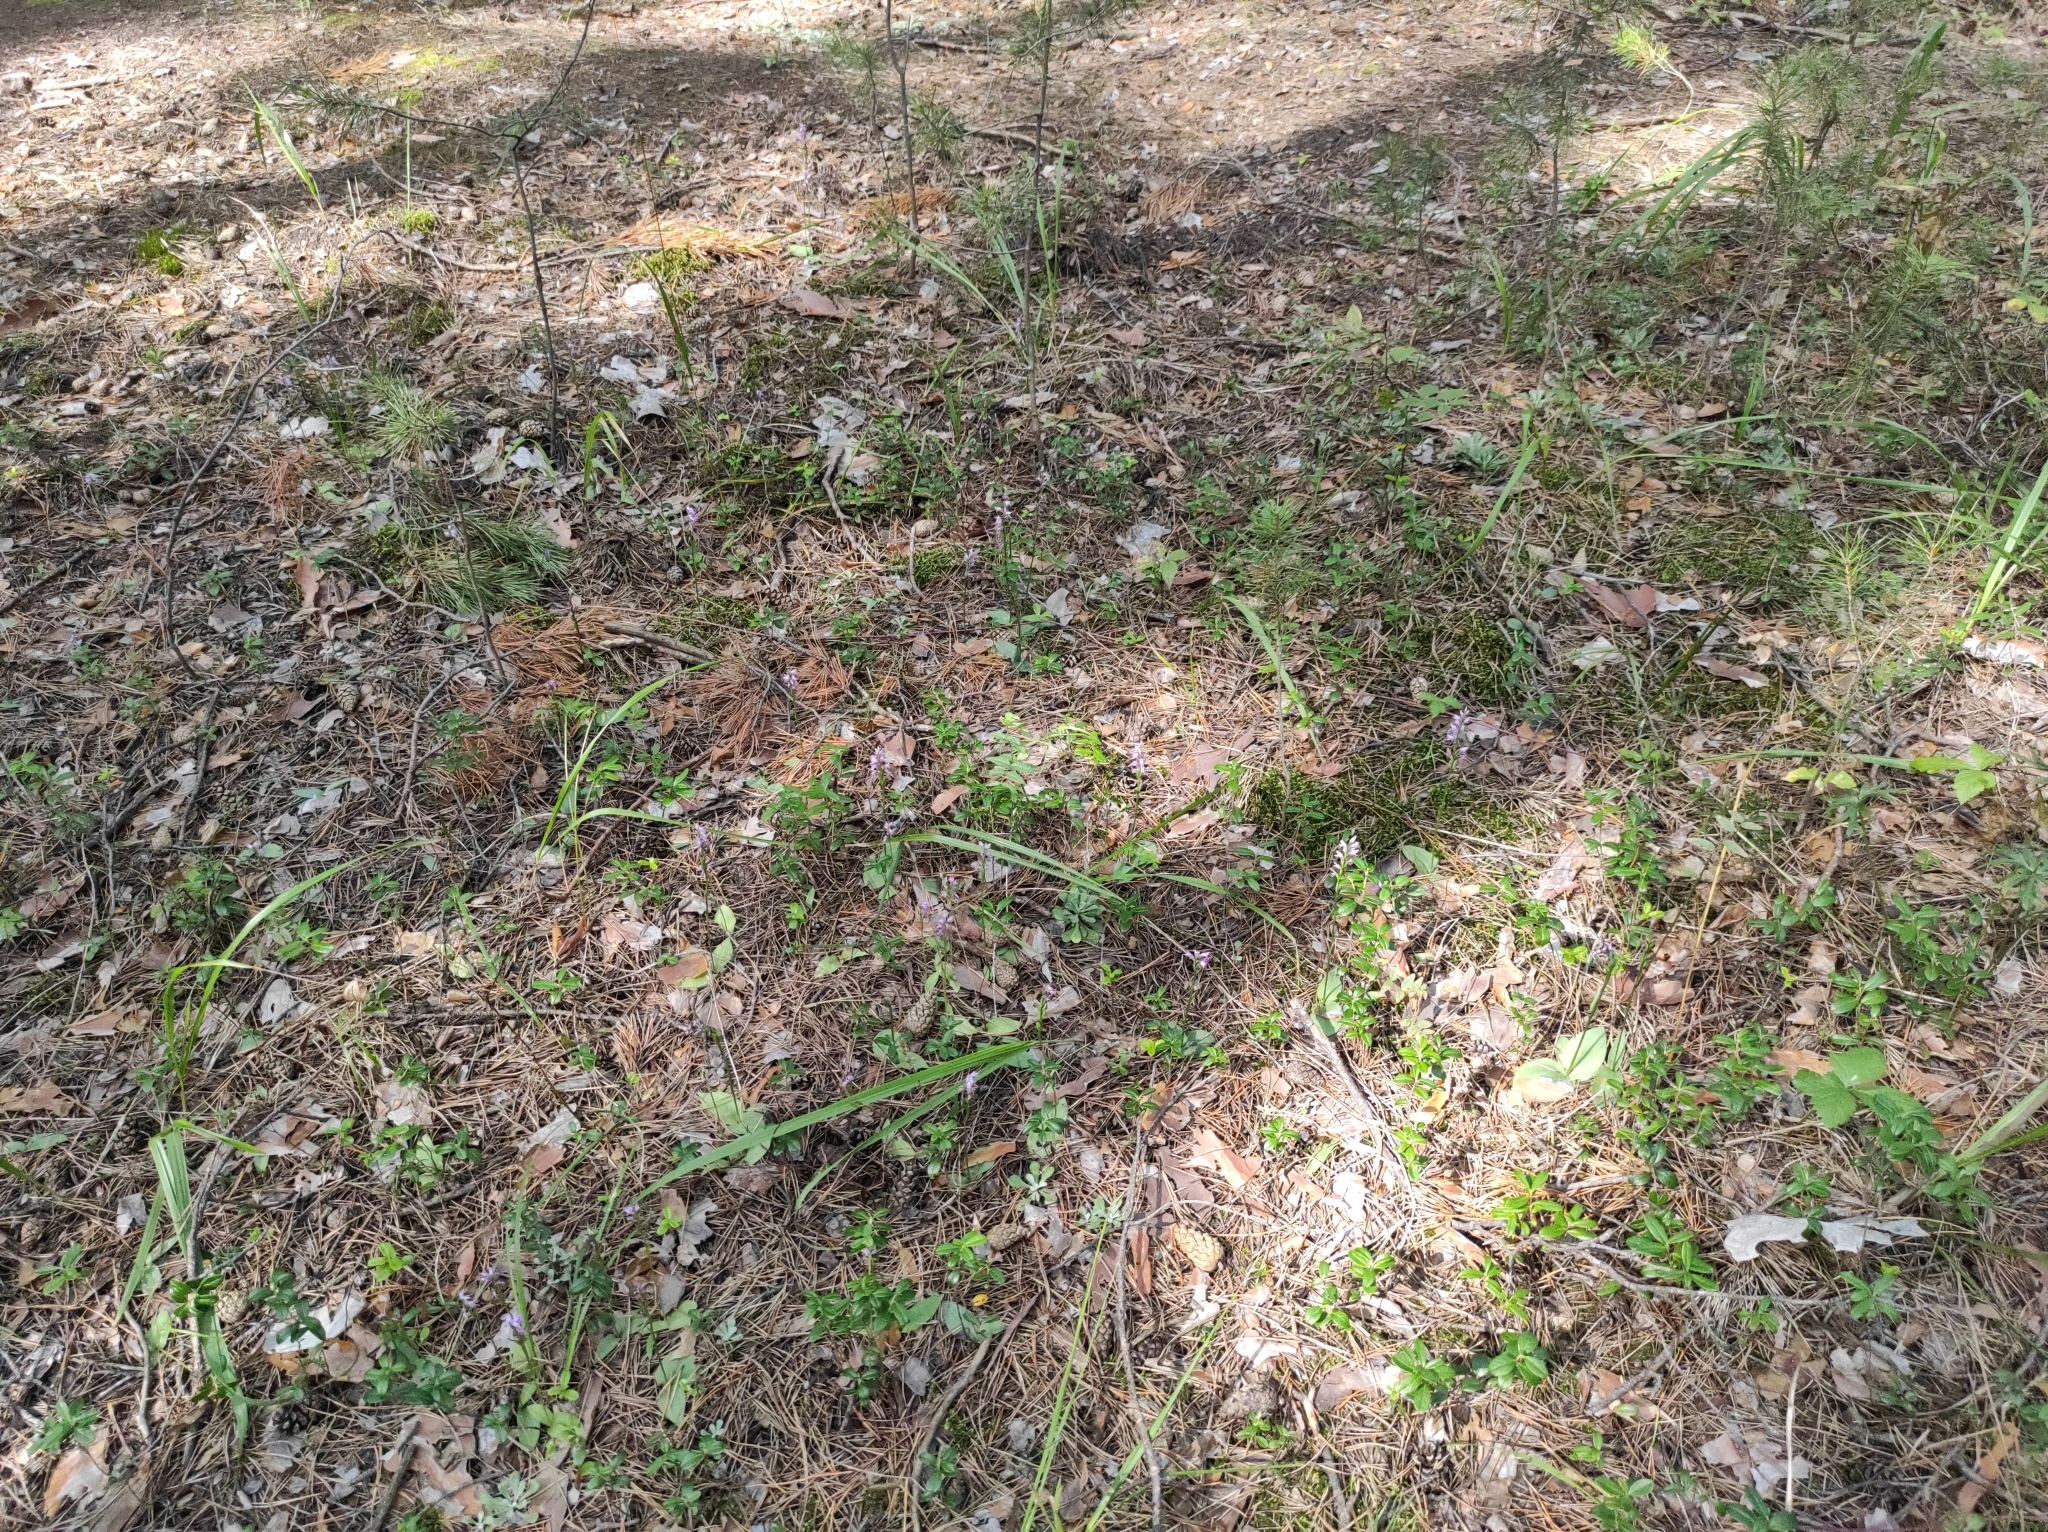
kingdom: Plantae
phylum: Tracheophyta
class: Liliopsida
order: Asparagales
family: Orchidaceae
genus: Hemipilia
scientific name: Hemipilia cucullata
